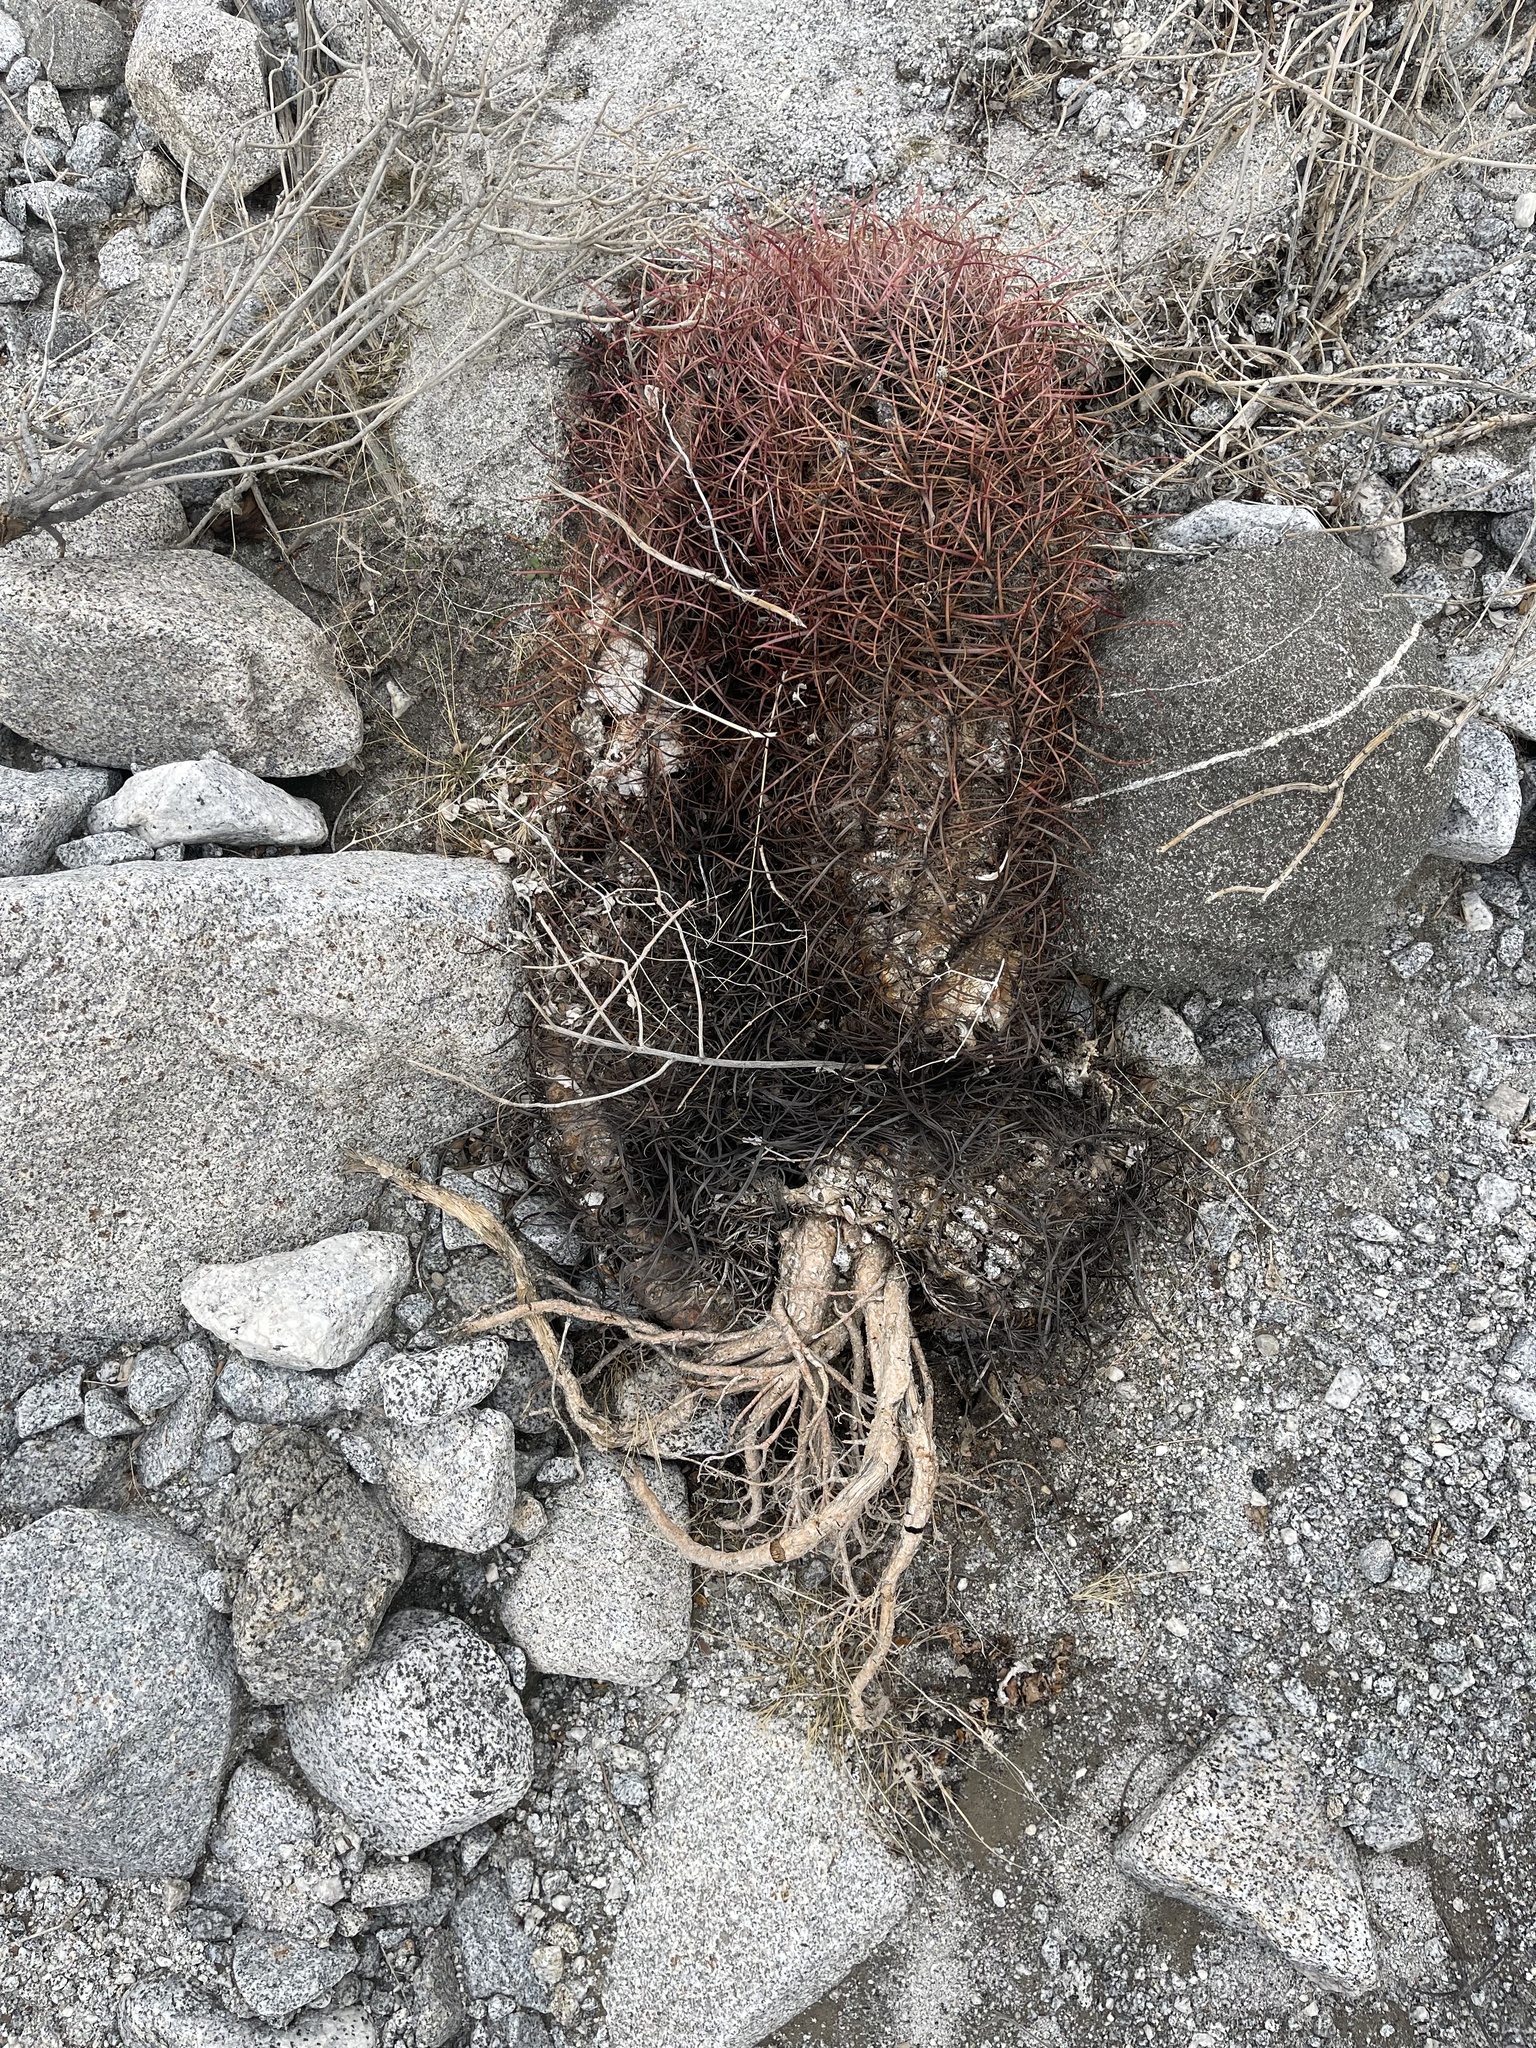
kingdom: Plantae
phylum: Tracheophyta
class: Magnoliopsida
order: Caryophyllales
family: Cactaceae
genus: Ferocactus
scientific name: Ferocactus cylindraceus
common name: California barrel cactus
